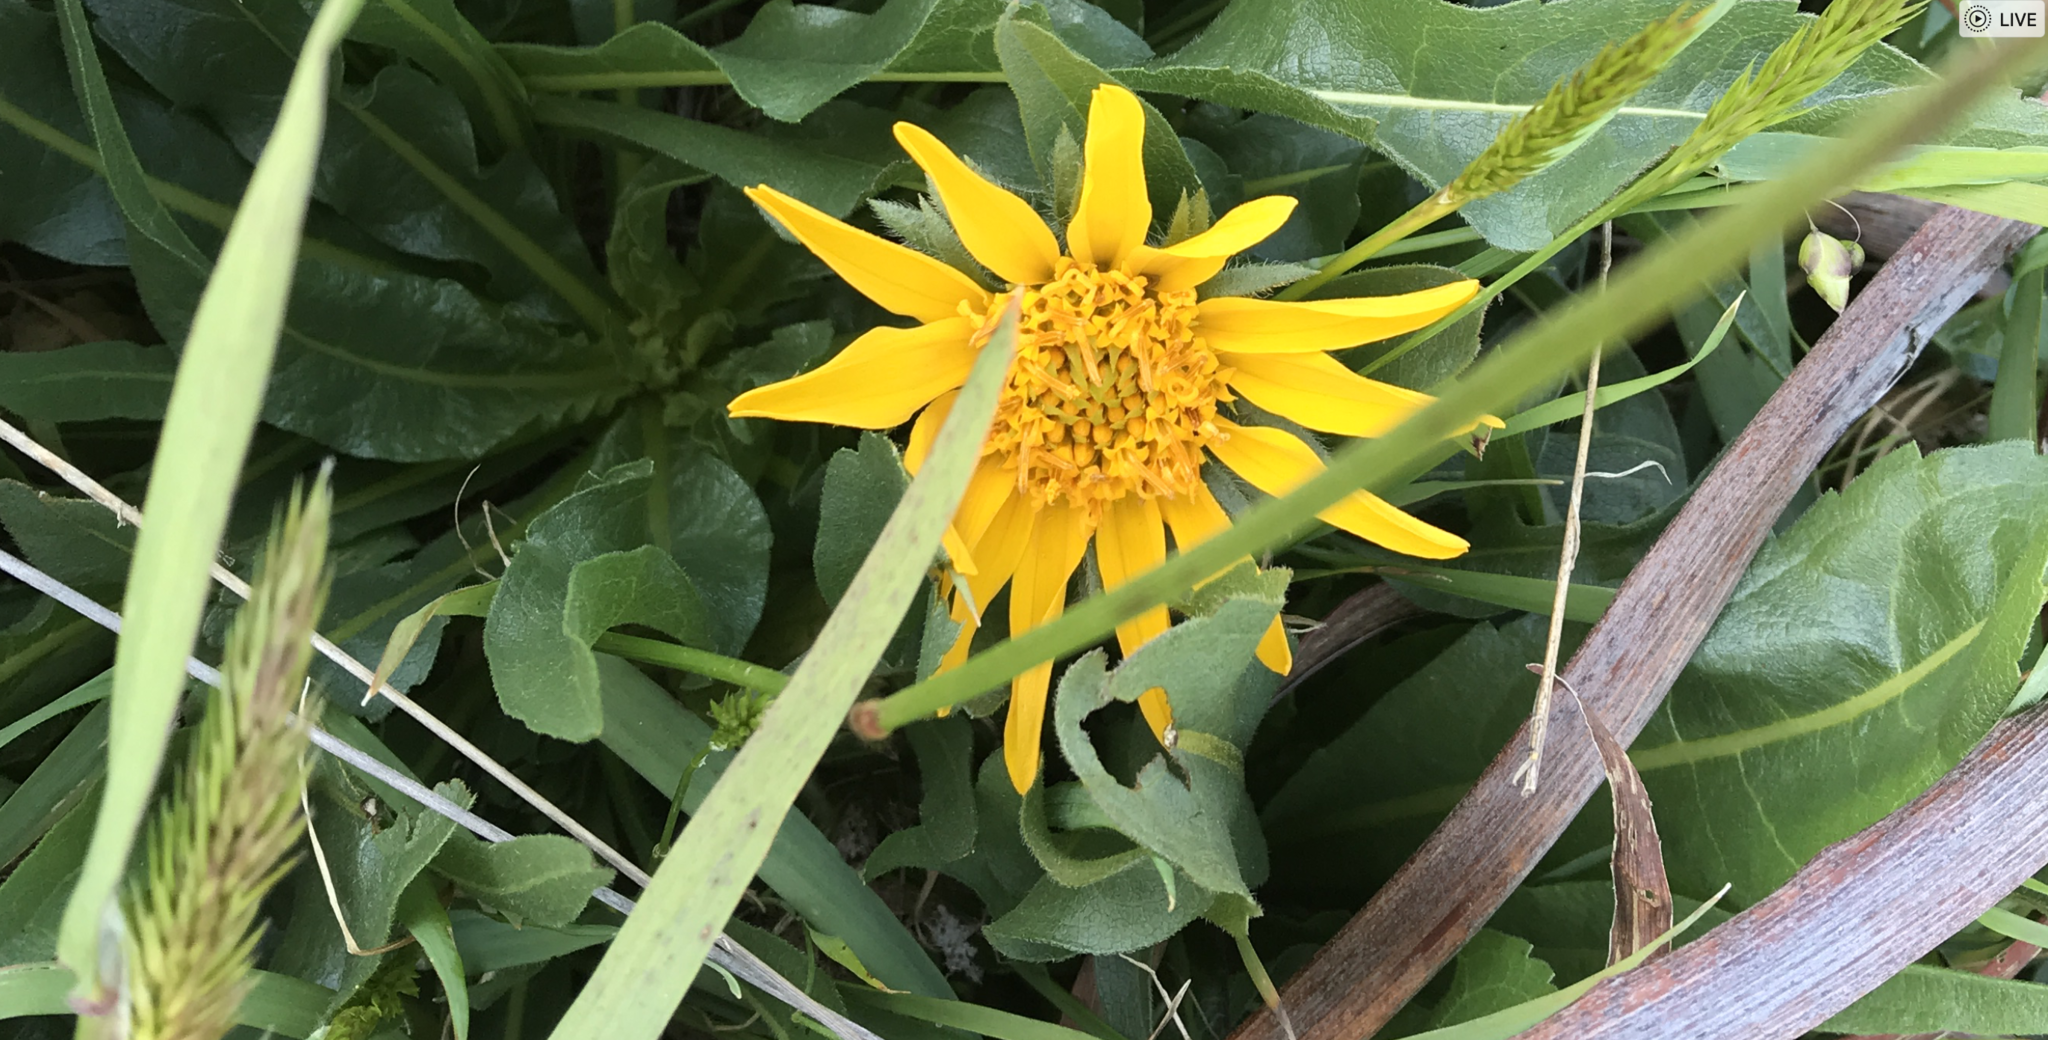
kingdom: Plantae
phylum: Tracheophyta
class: Magnoliopsida
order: Asterales
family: Asteraceae
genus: Wyethia
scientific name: Wyethia angustifolia
